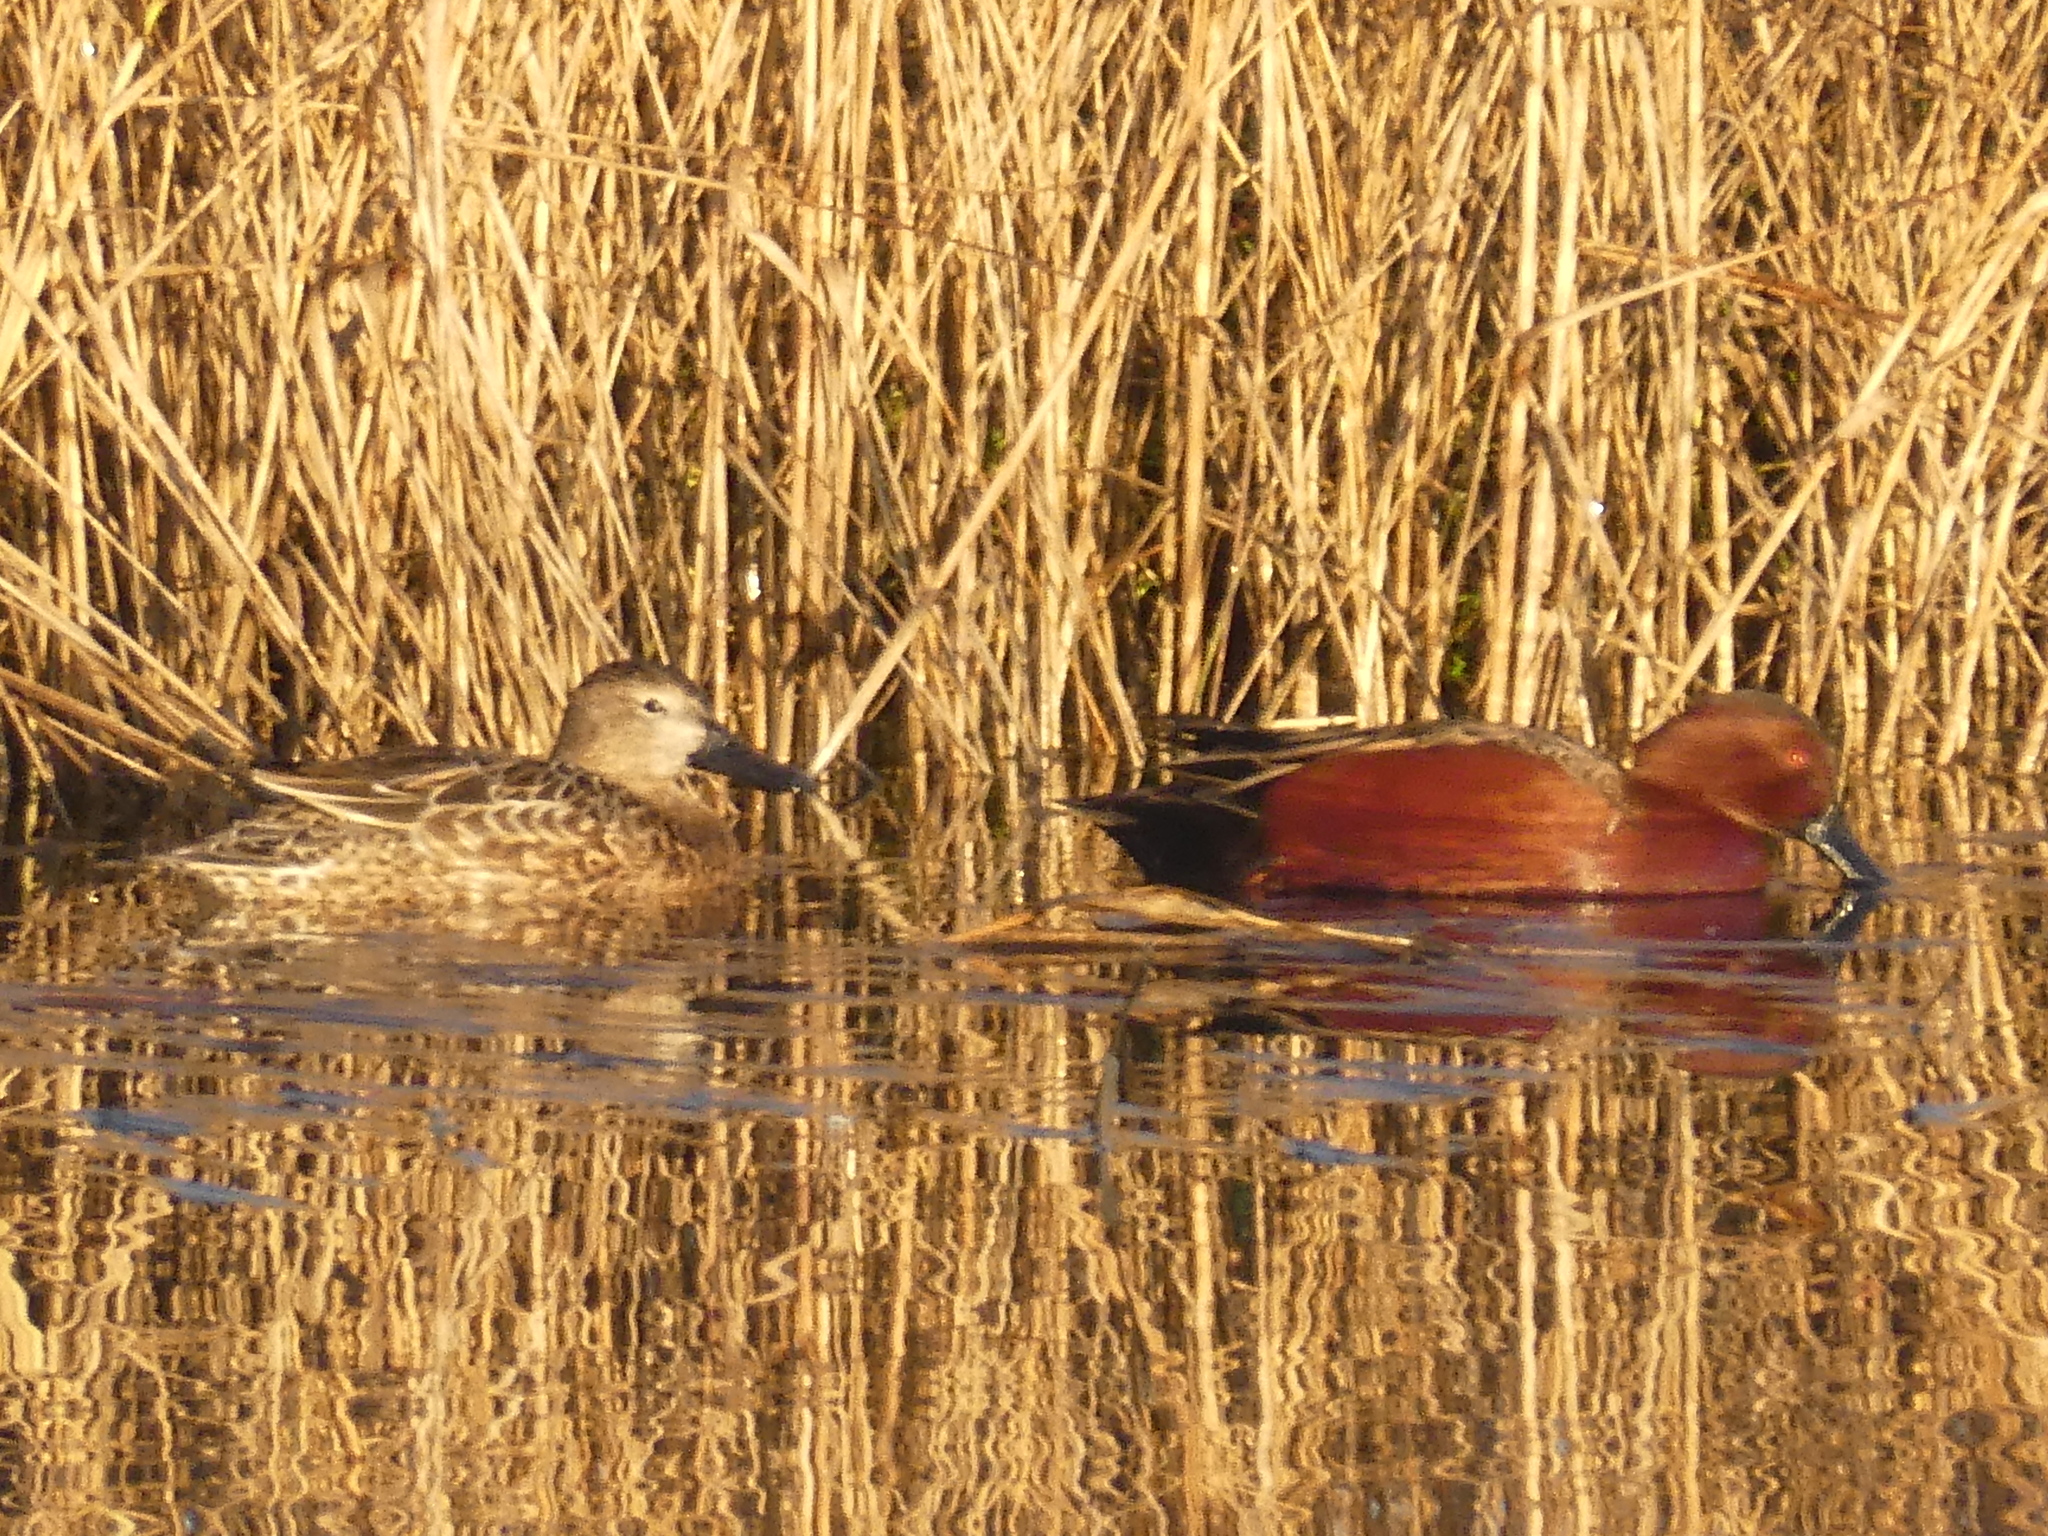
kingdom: Animalia
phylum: Chordata
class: Aves
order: Anseriformes
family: Anatidae
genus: Spatula
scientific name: Spatula cyanoptera
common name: Cinnamon teal
